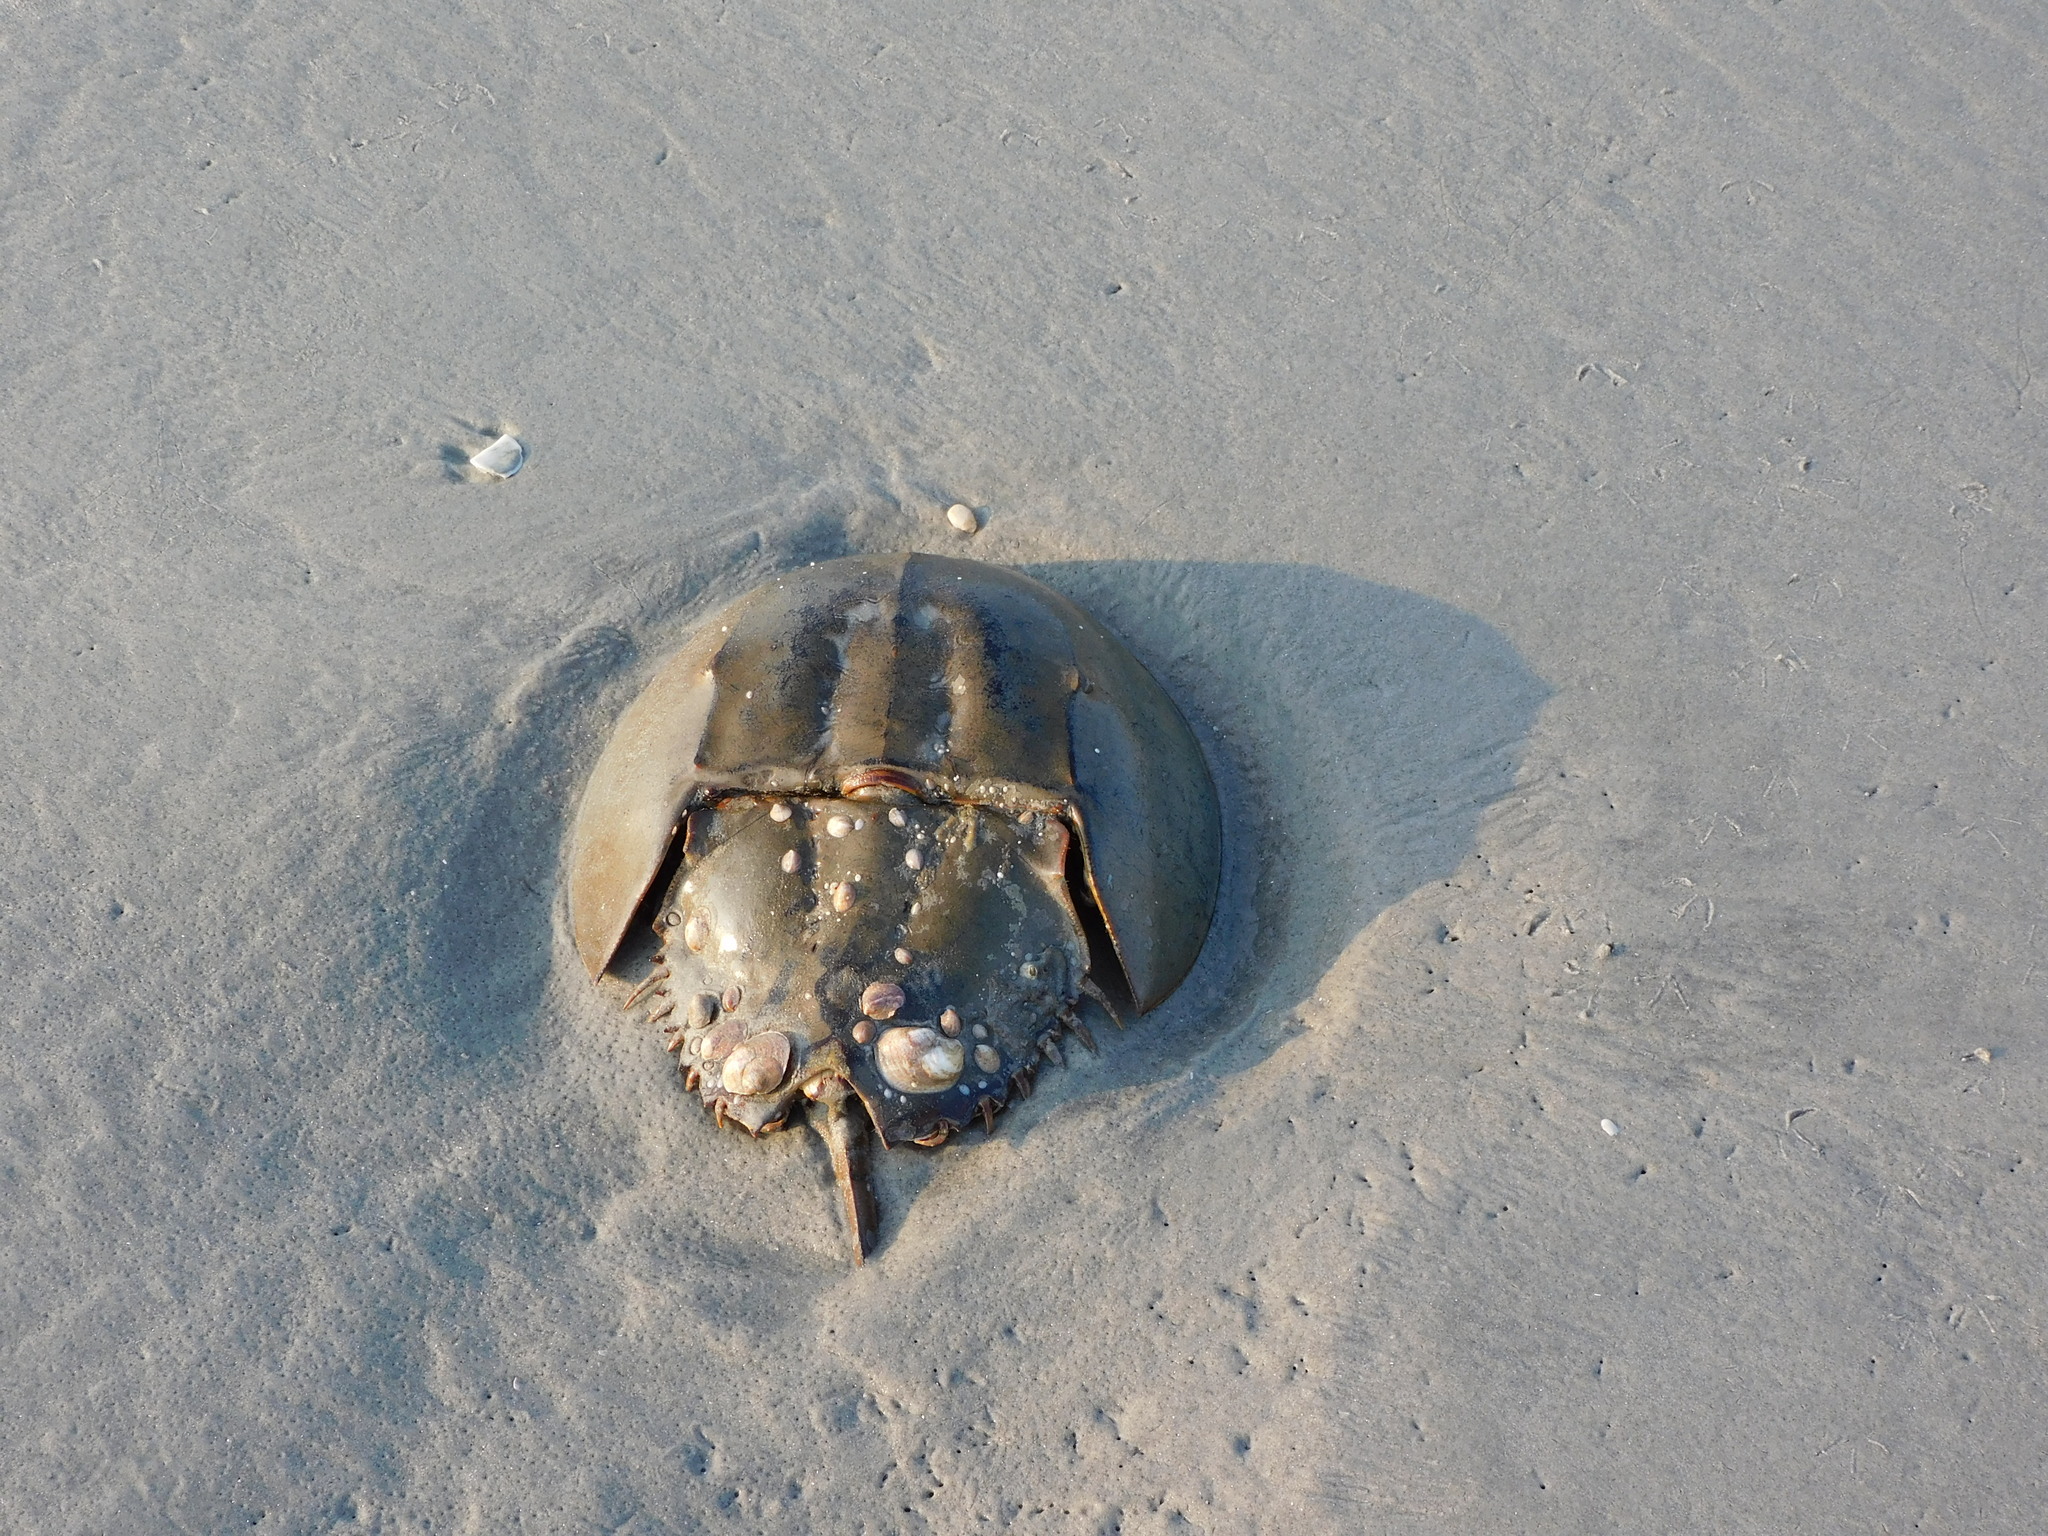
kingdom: Animalia
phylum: Arthropoda
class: Merostomata
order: Xiphosurida
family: Limulidae
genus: Limulus
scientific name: Limulus polyphemus
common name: Horseshoe crab
